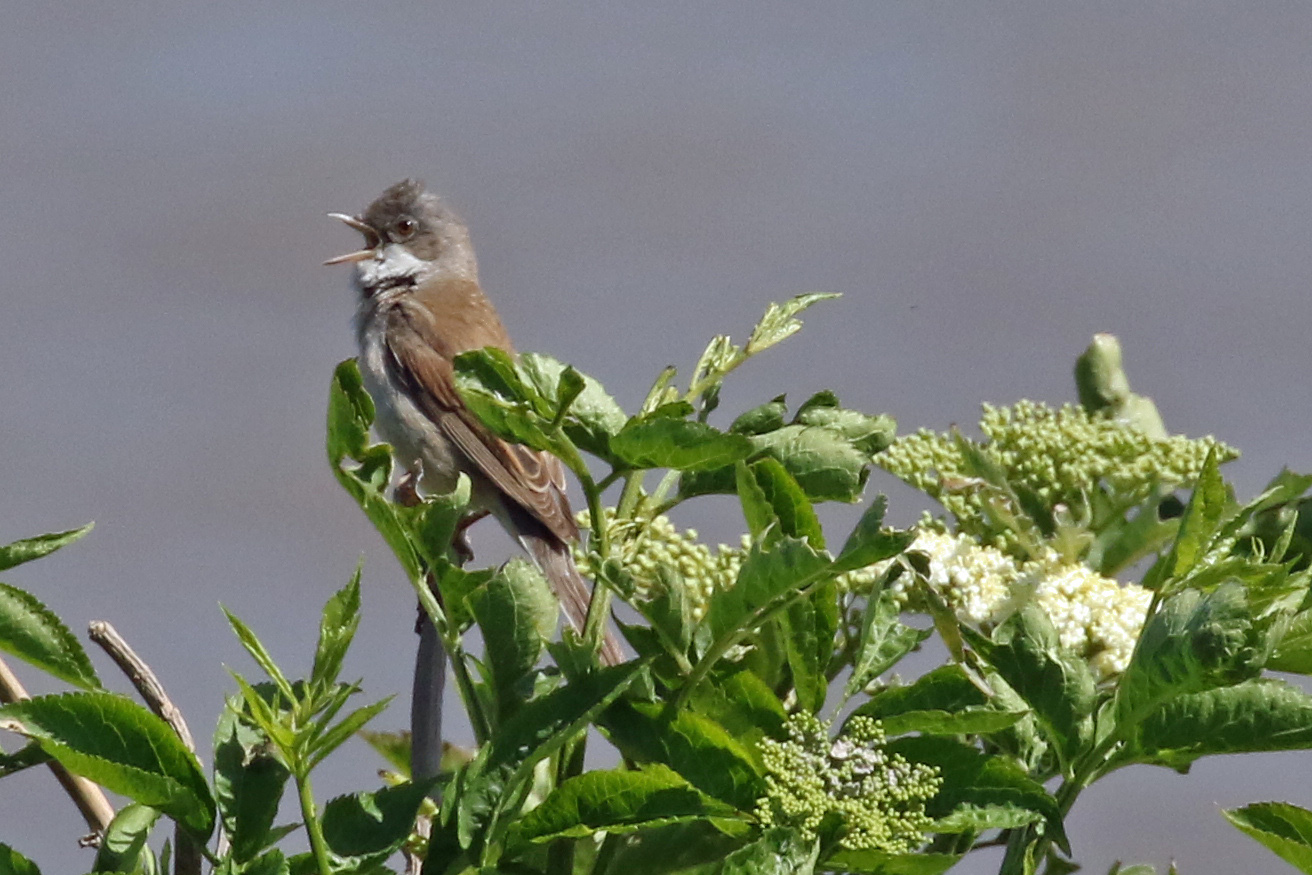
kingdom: Animalia
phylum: Chordata
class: Aves
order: Passeriformes
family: Sylviidae
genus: Sylvia
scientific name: Sylvia communis
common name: Common whitethroat
